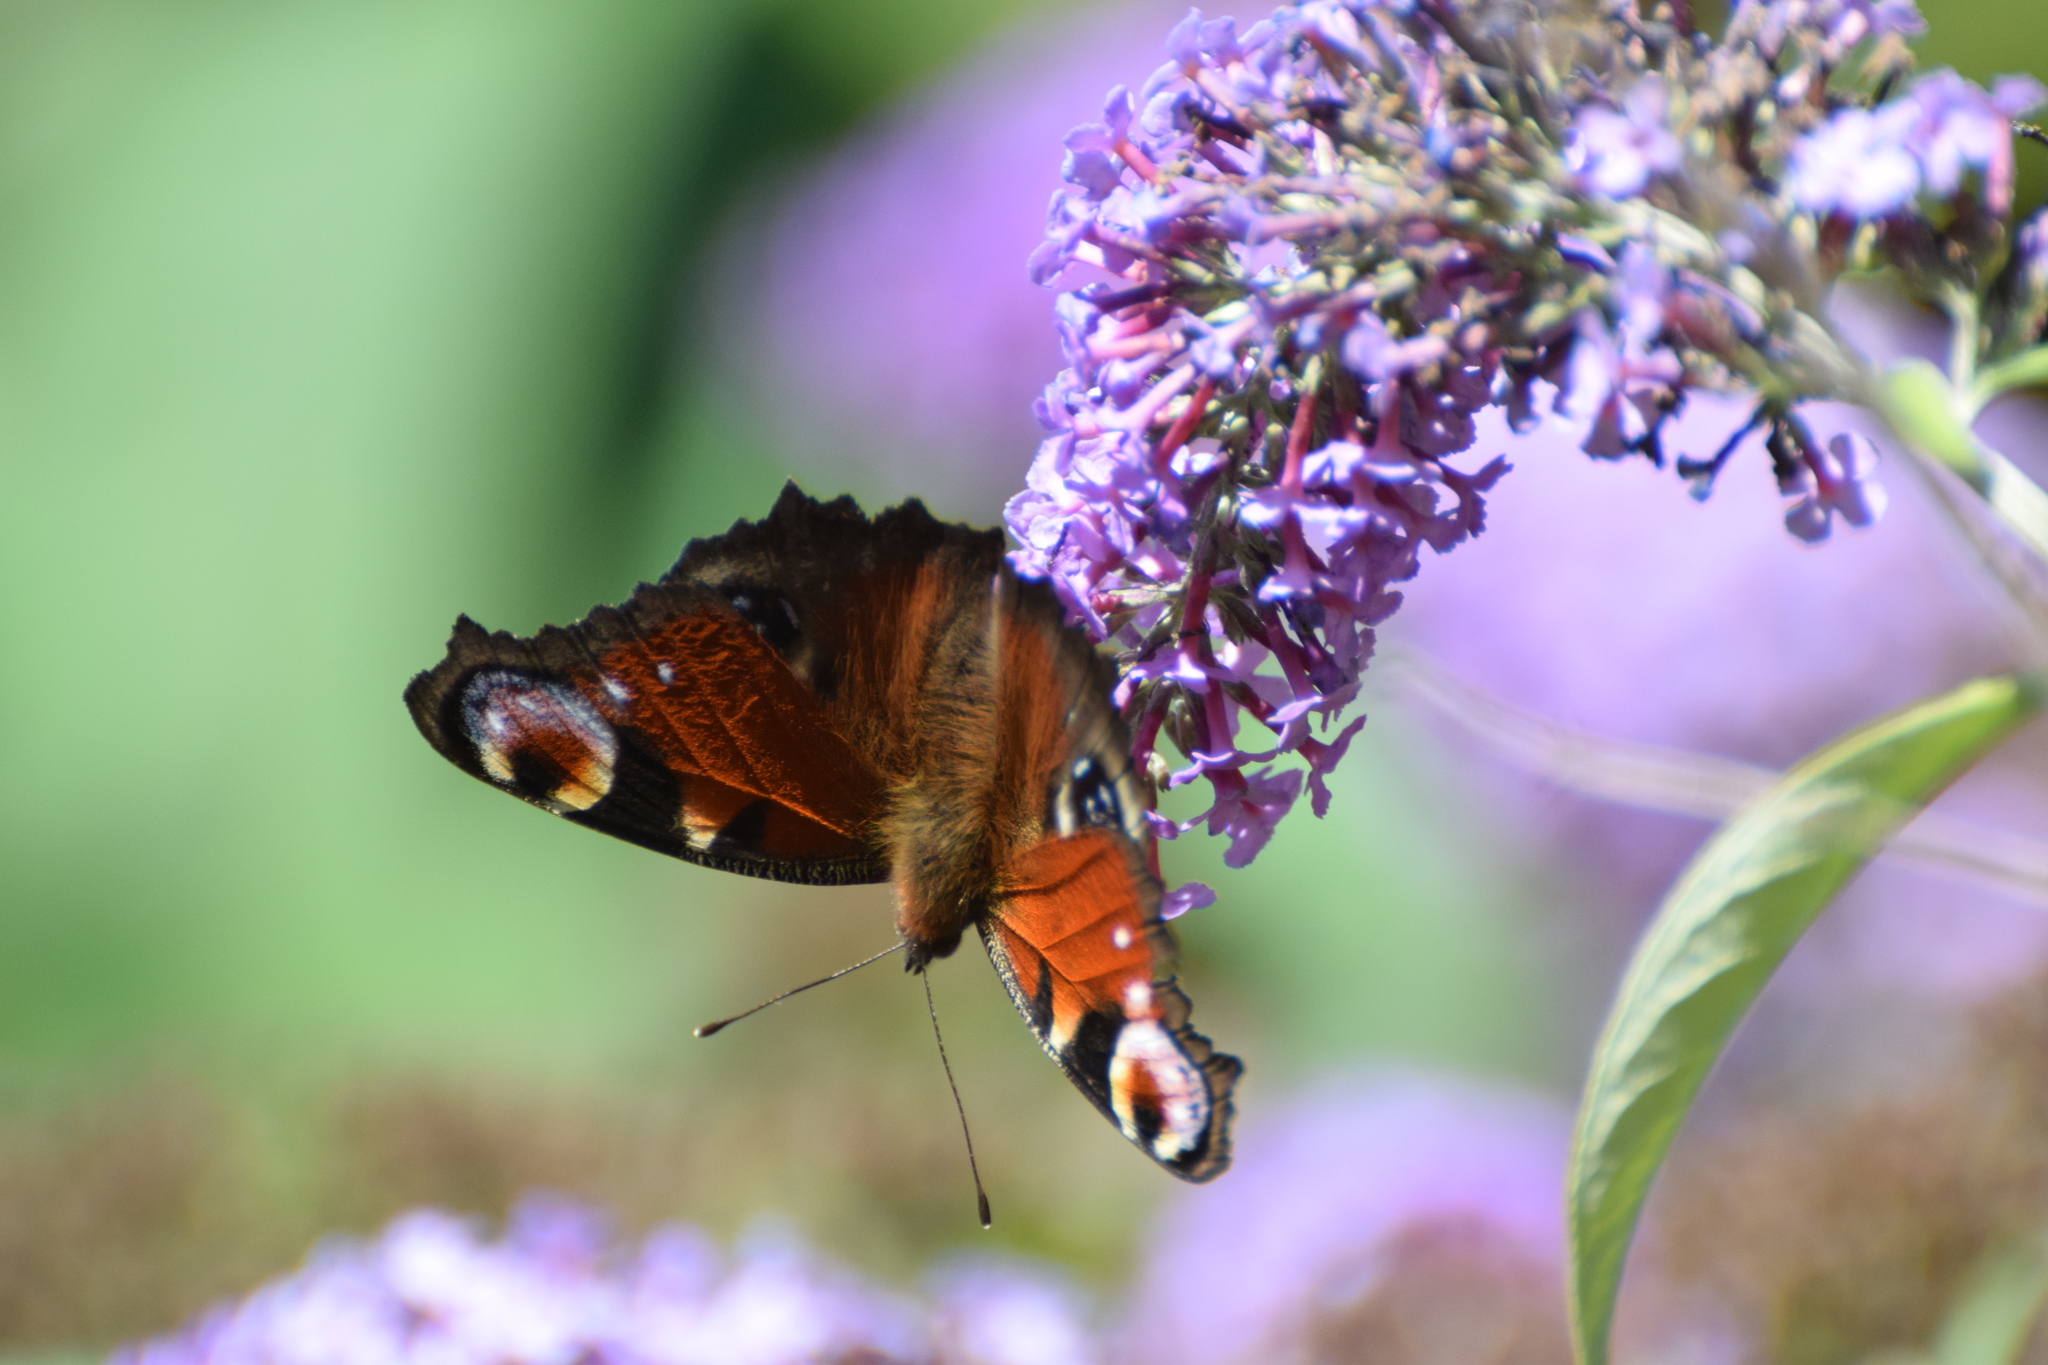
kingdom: Animalia
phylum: Arthropoda
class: Insecta
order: Lepidoptera
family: Nymphalidae
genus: Aglais
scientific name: Aglais io
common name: Peacock
